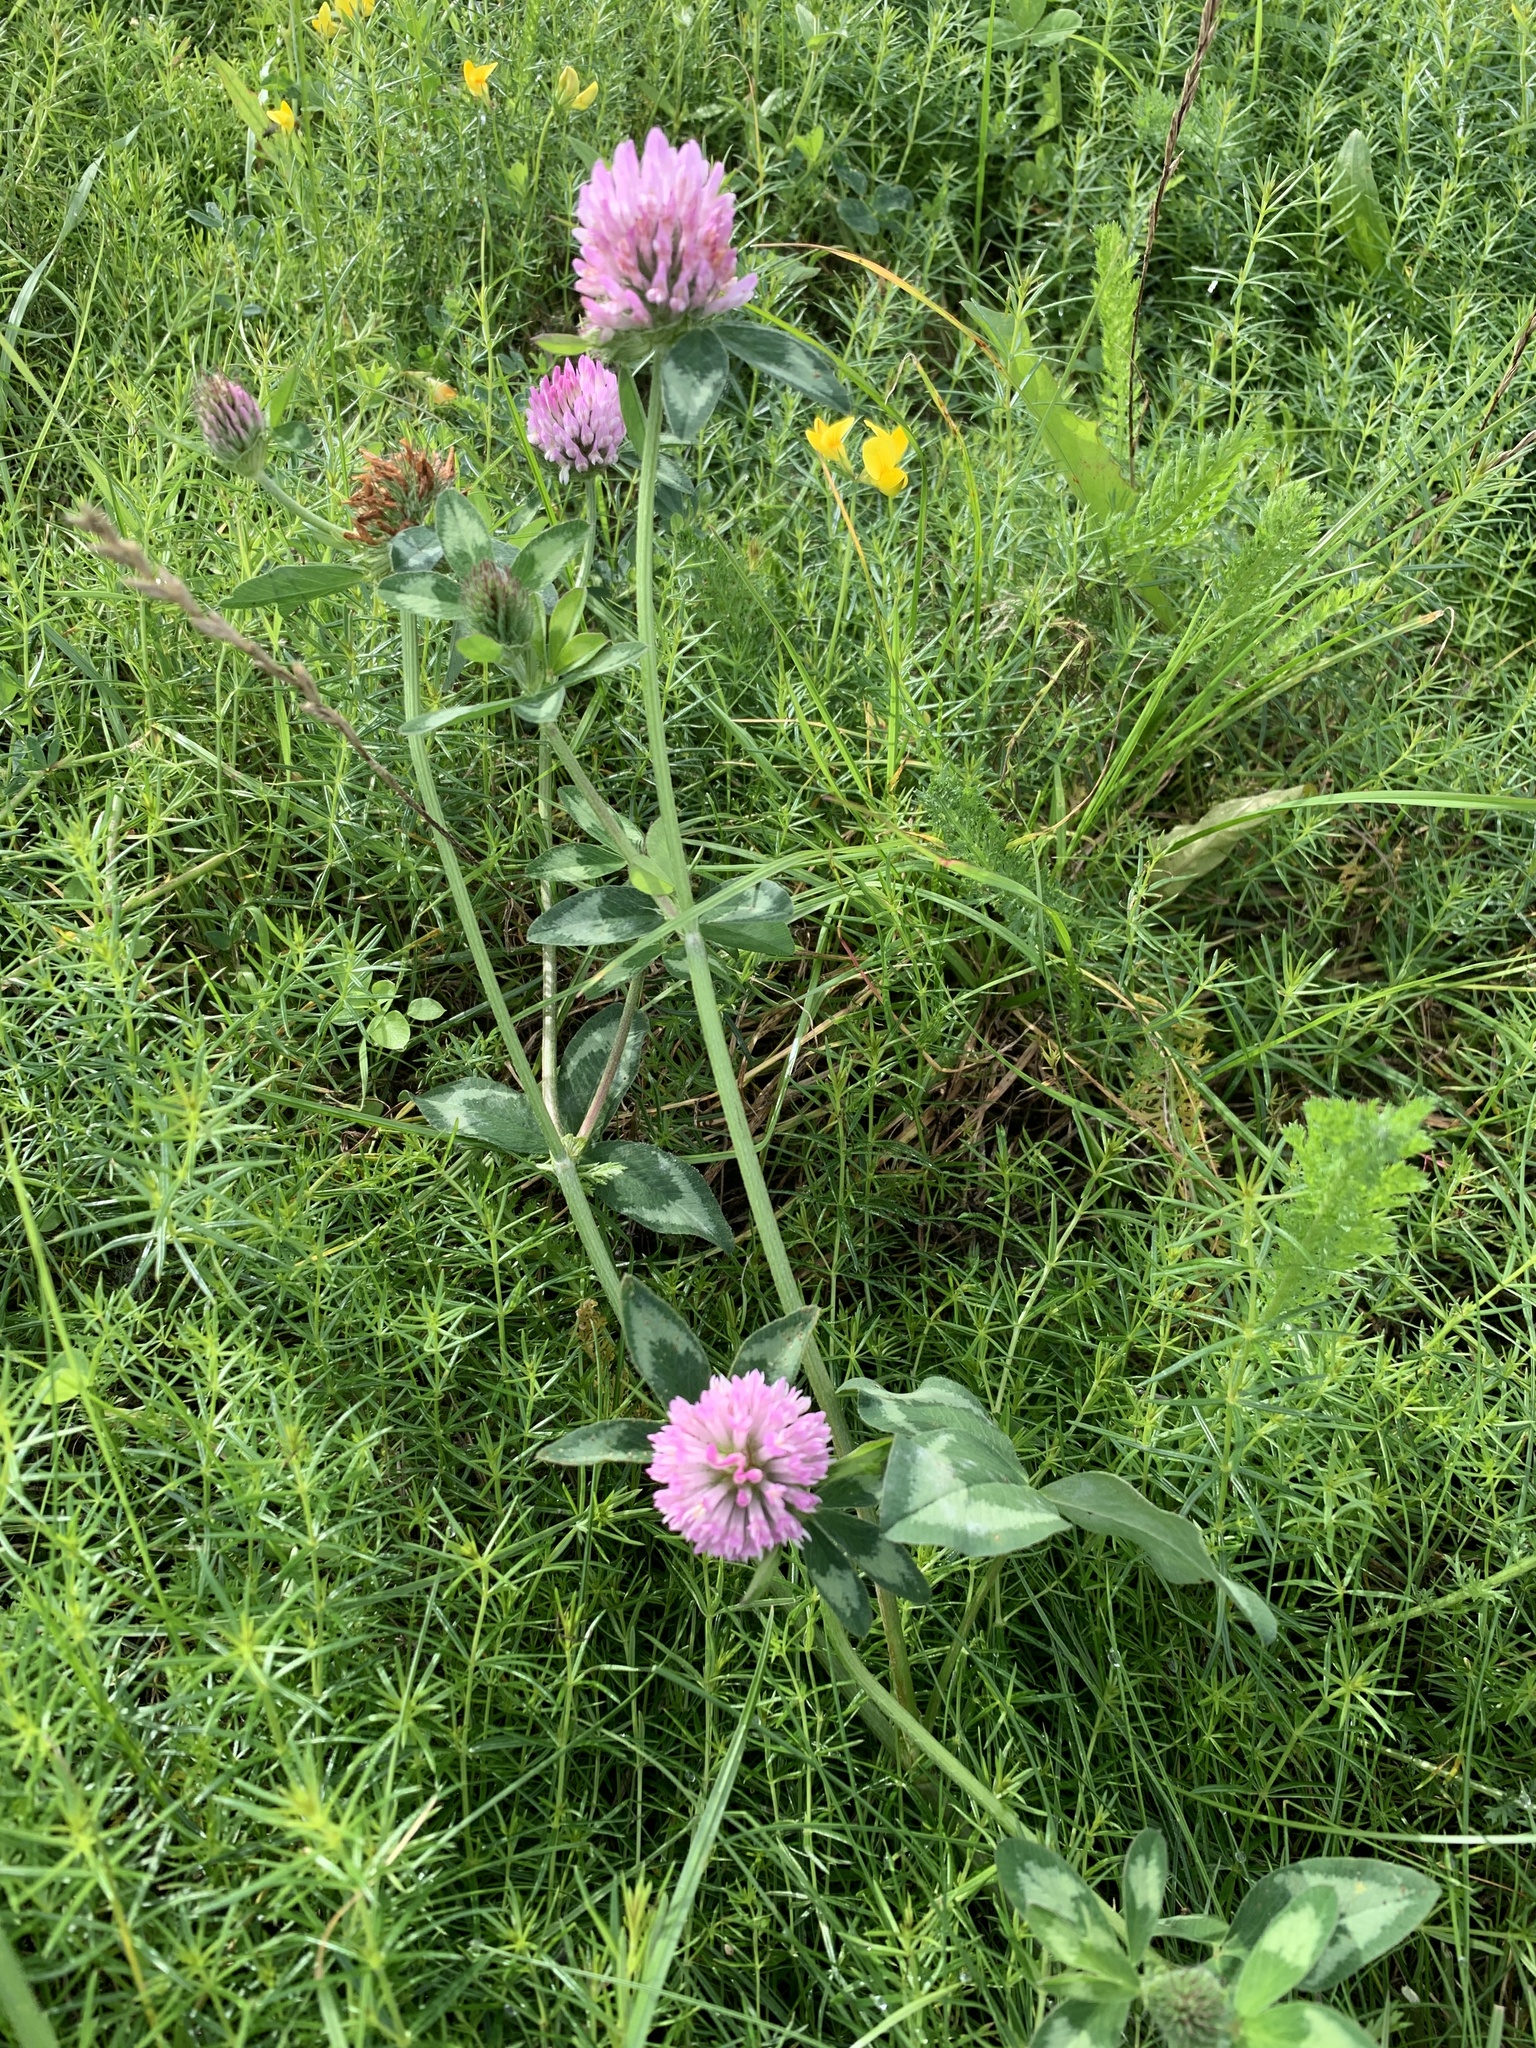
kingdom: Plantae
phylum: Tracheophyta
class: Magnoliopsida
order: Fabales
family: Fabaceae
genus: Trifolium
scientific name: Trifolium pratense
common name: Red clover
